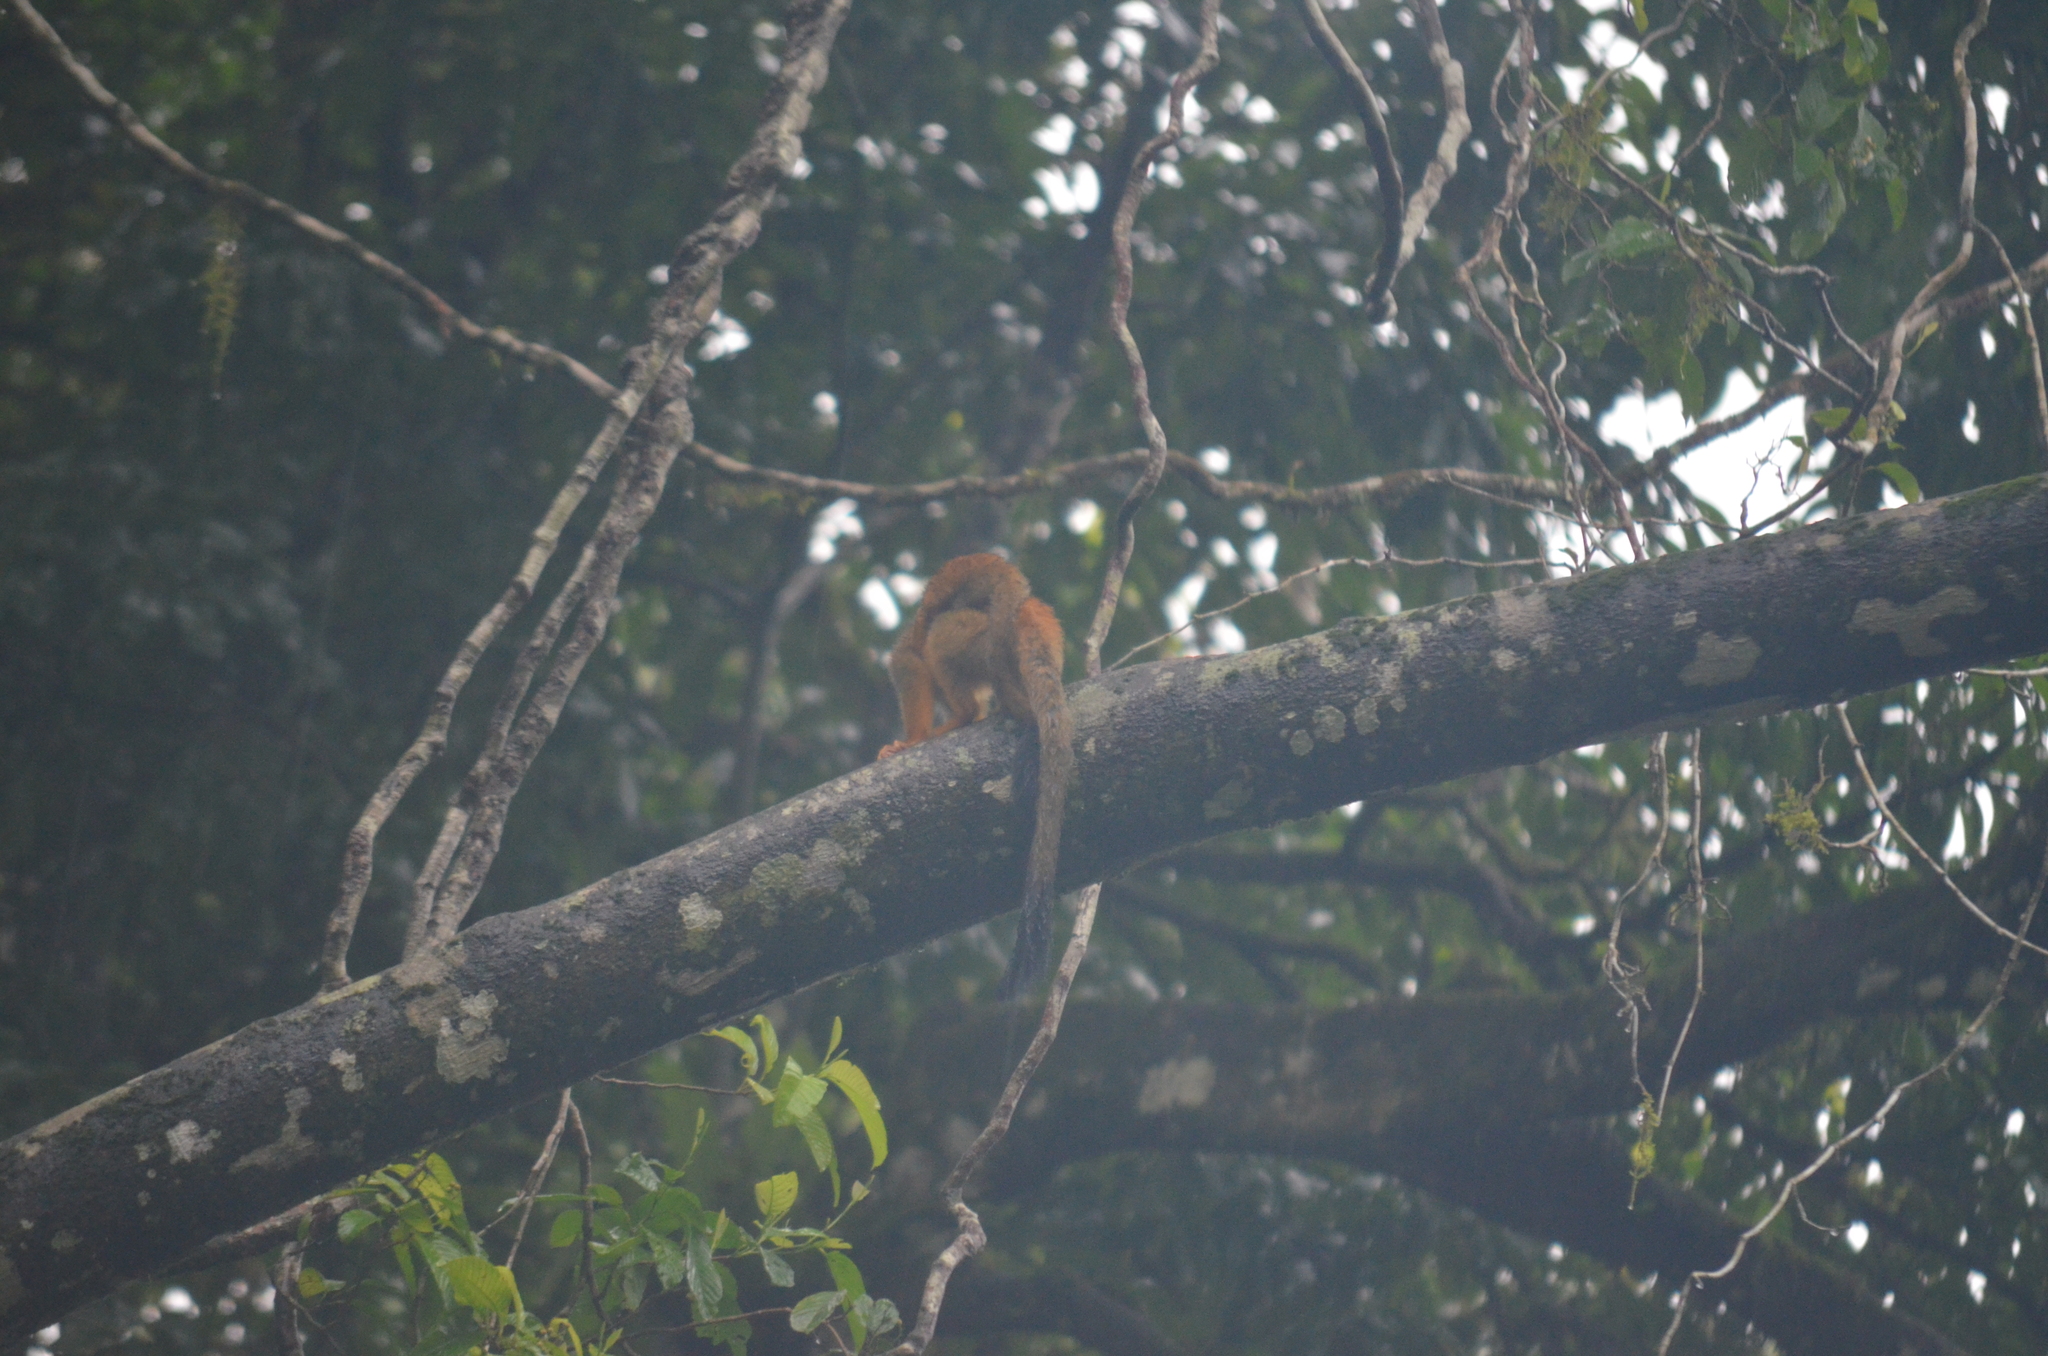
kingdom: Animalia
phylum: Chordata
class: Mammalia
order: Primates
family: Cebidae
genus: Saimiri
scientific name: Saimiri oerstedii
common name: Central american squirrel monkey
